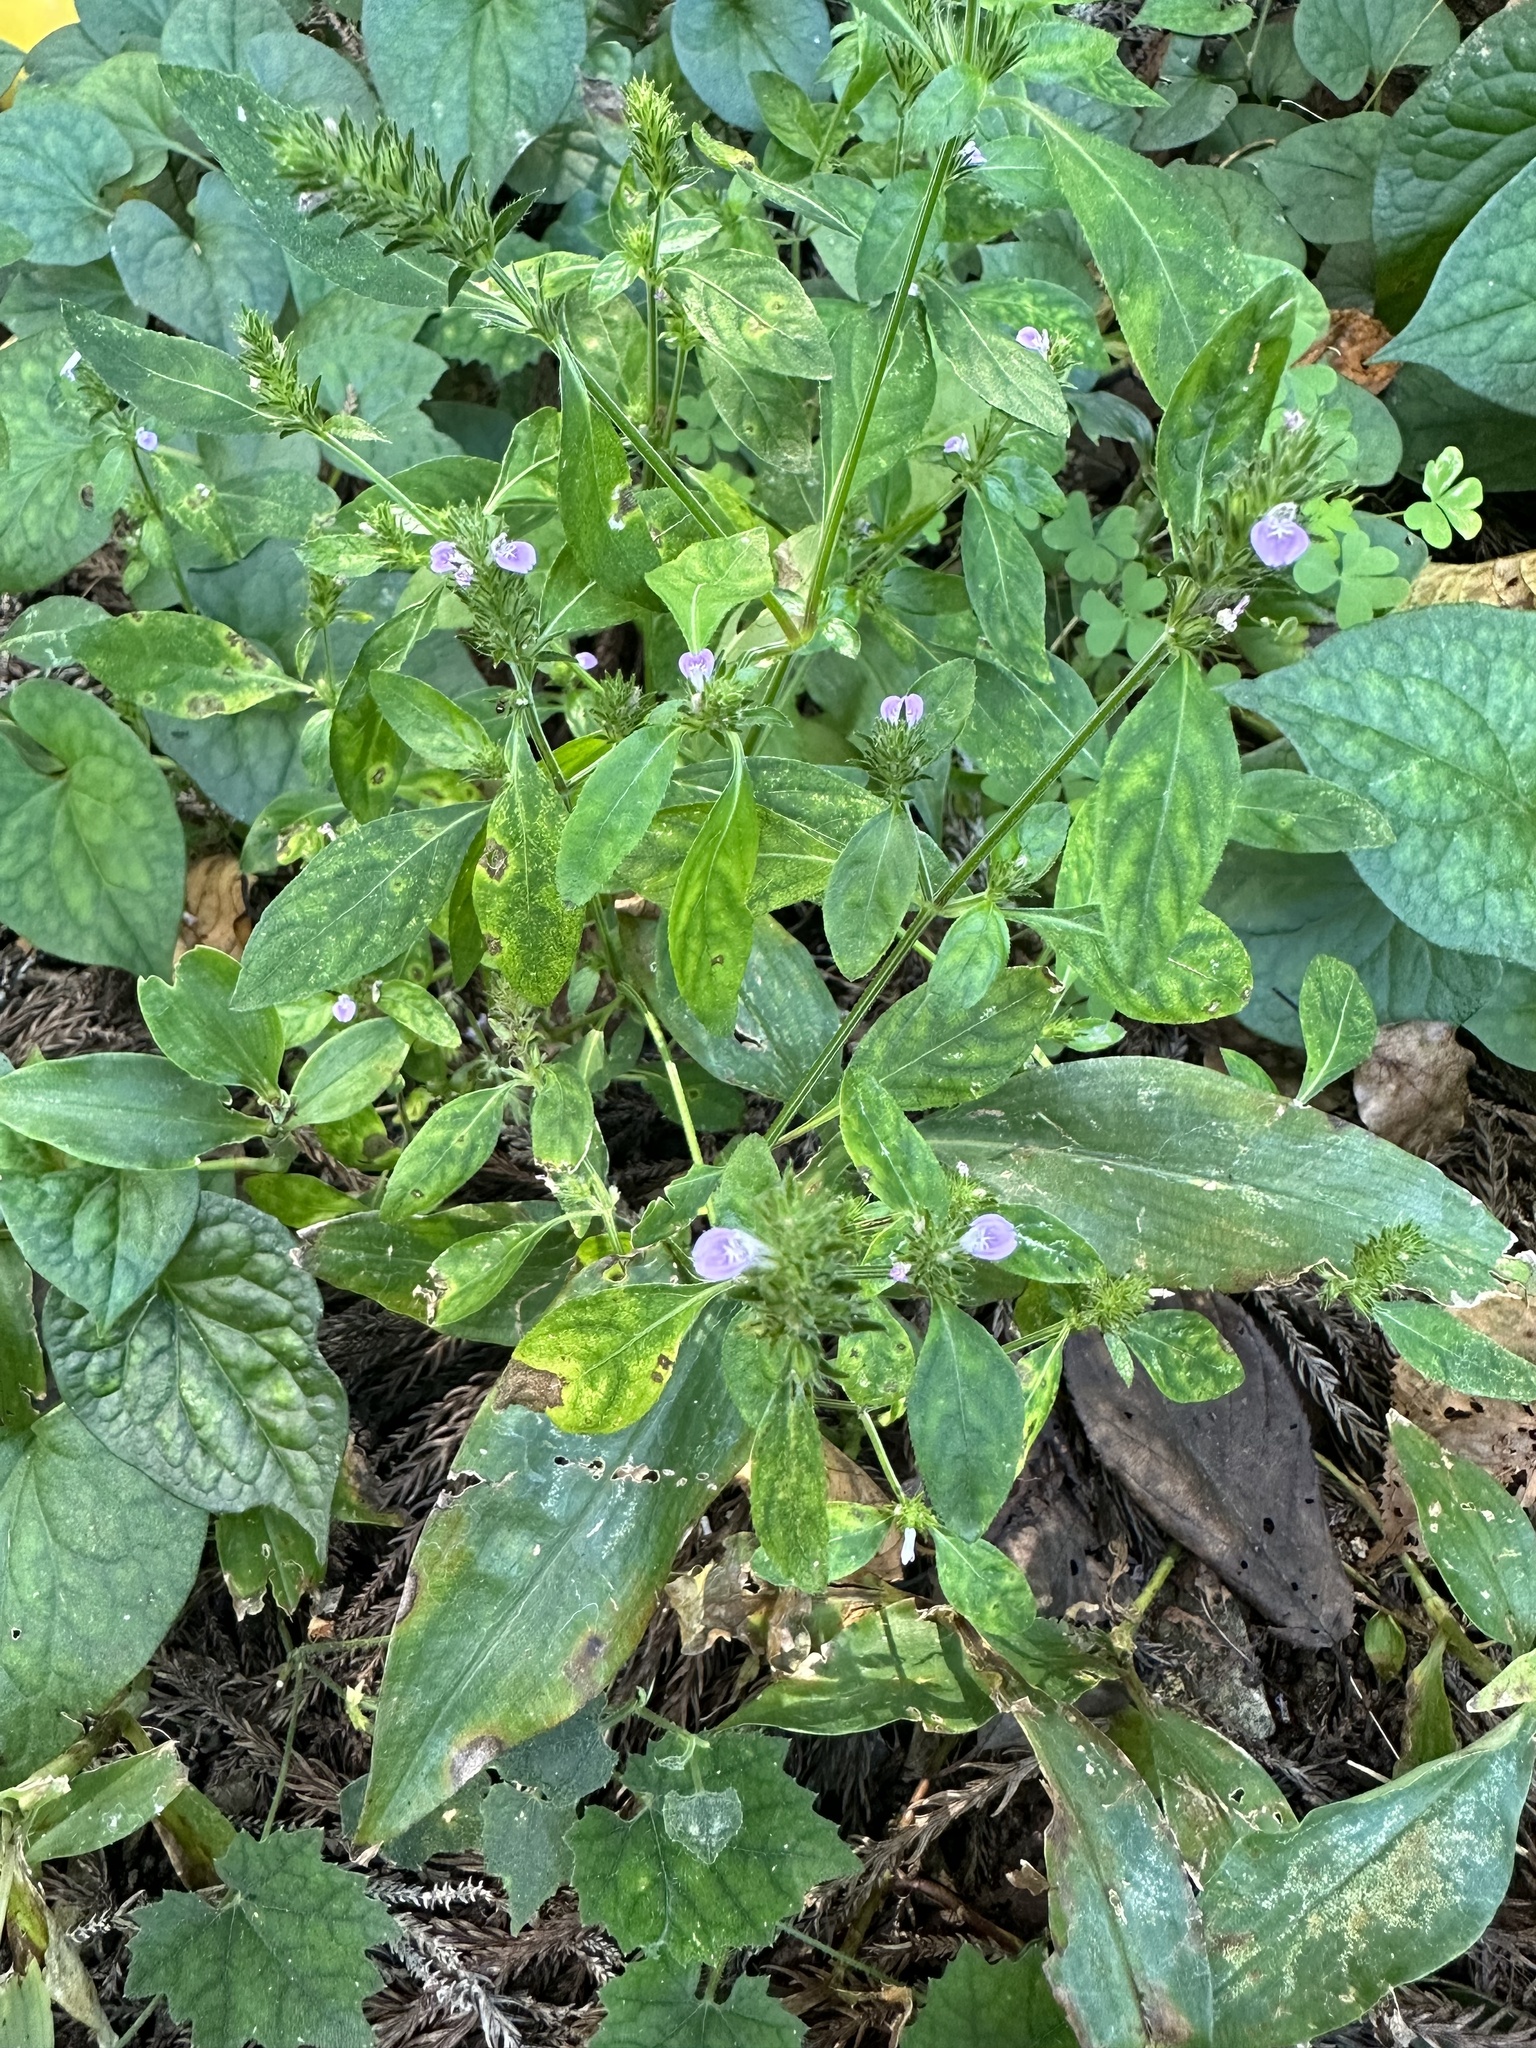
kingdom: Plantae
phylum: Tracheophyta
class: Magnoliopsida
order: Lamiales
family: Acanthaceae
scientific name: Acanthaceae
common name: Acanthaceae
